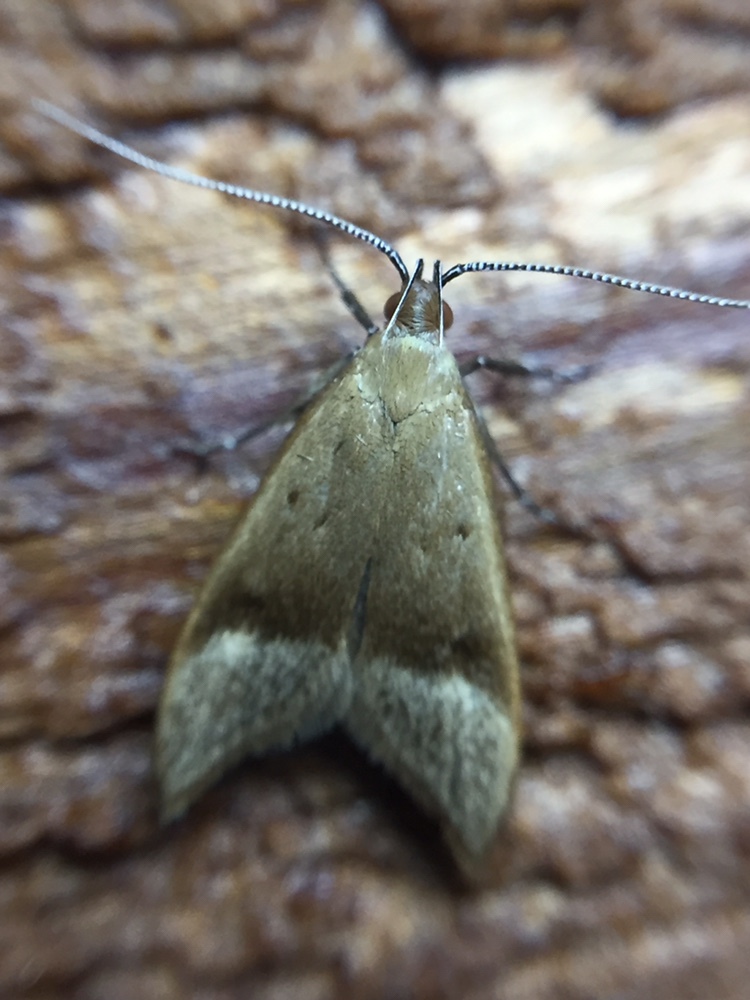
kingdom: Animalia
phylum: Arthropoda
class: Insecta
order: Lepidoptera
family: Oecophoridae
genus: Gymnobathra
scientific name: Gymnobathra hyetodes
